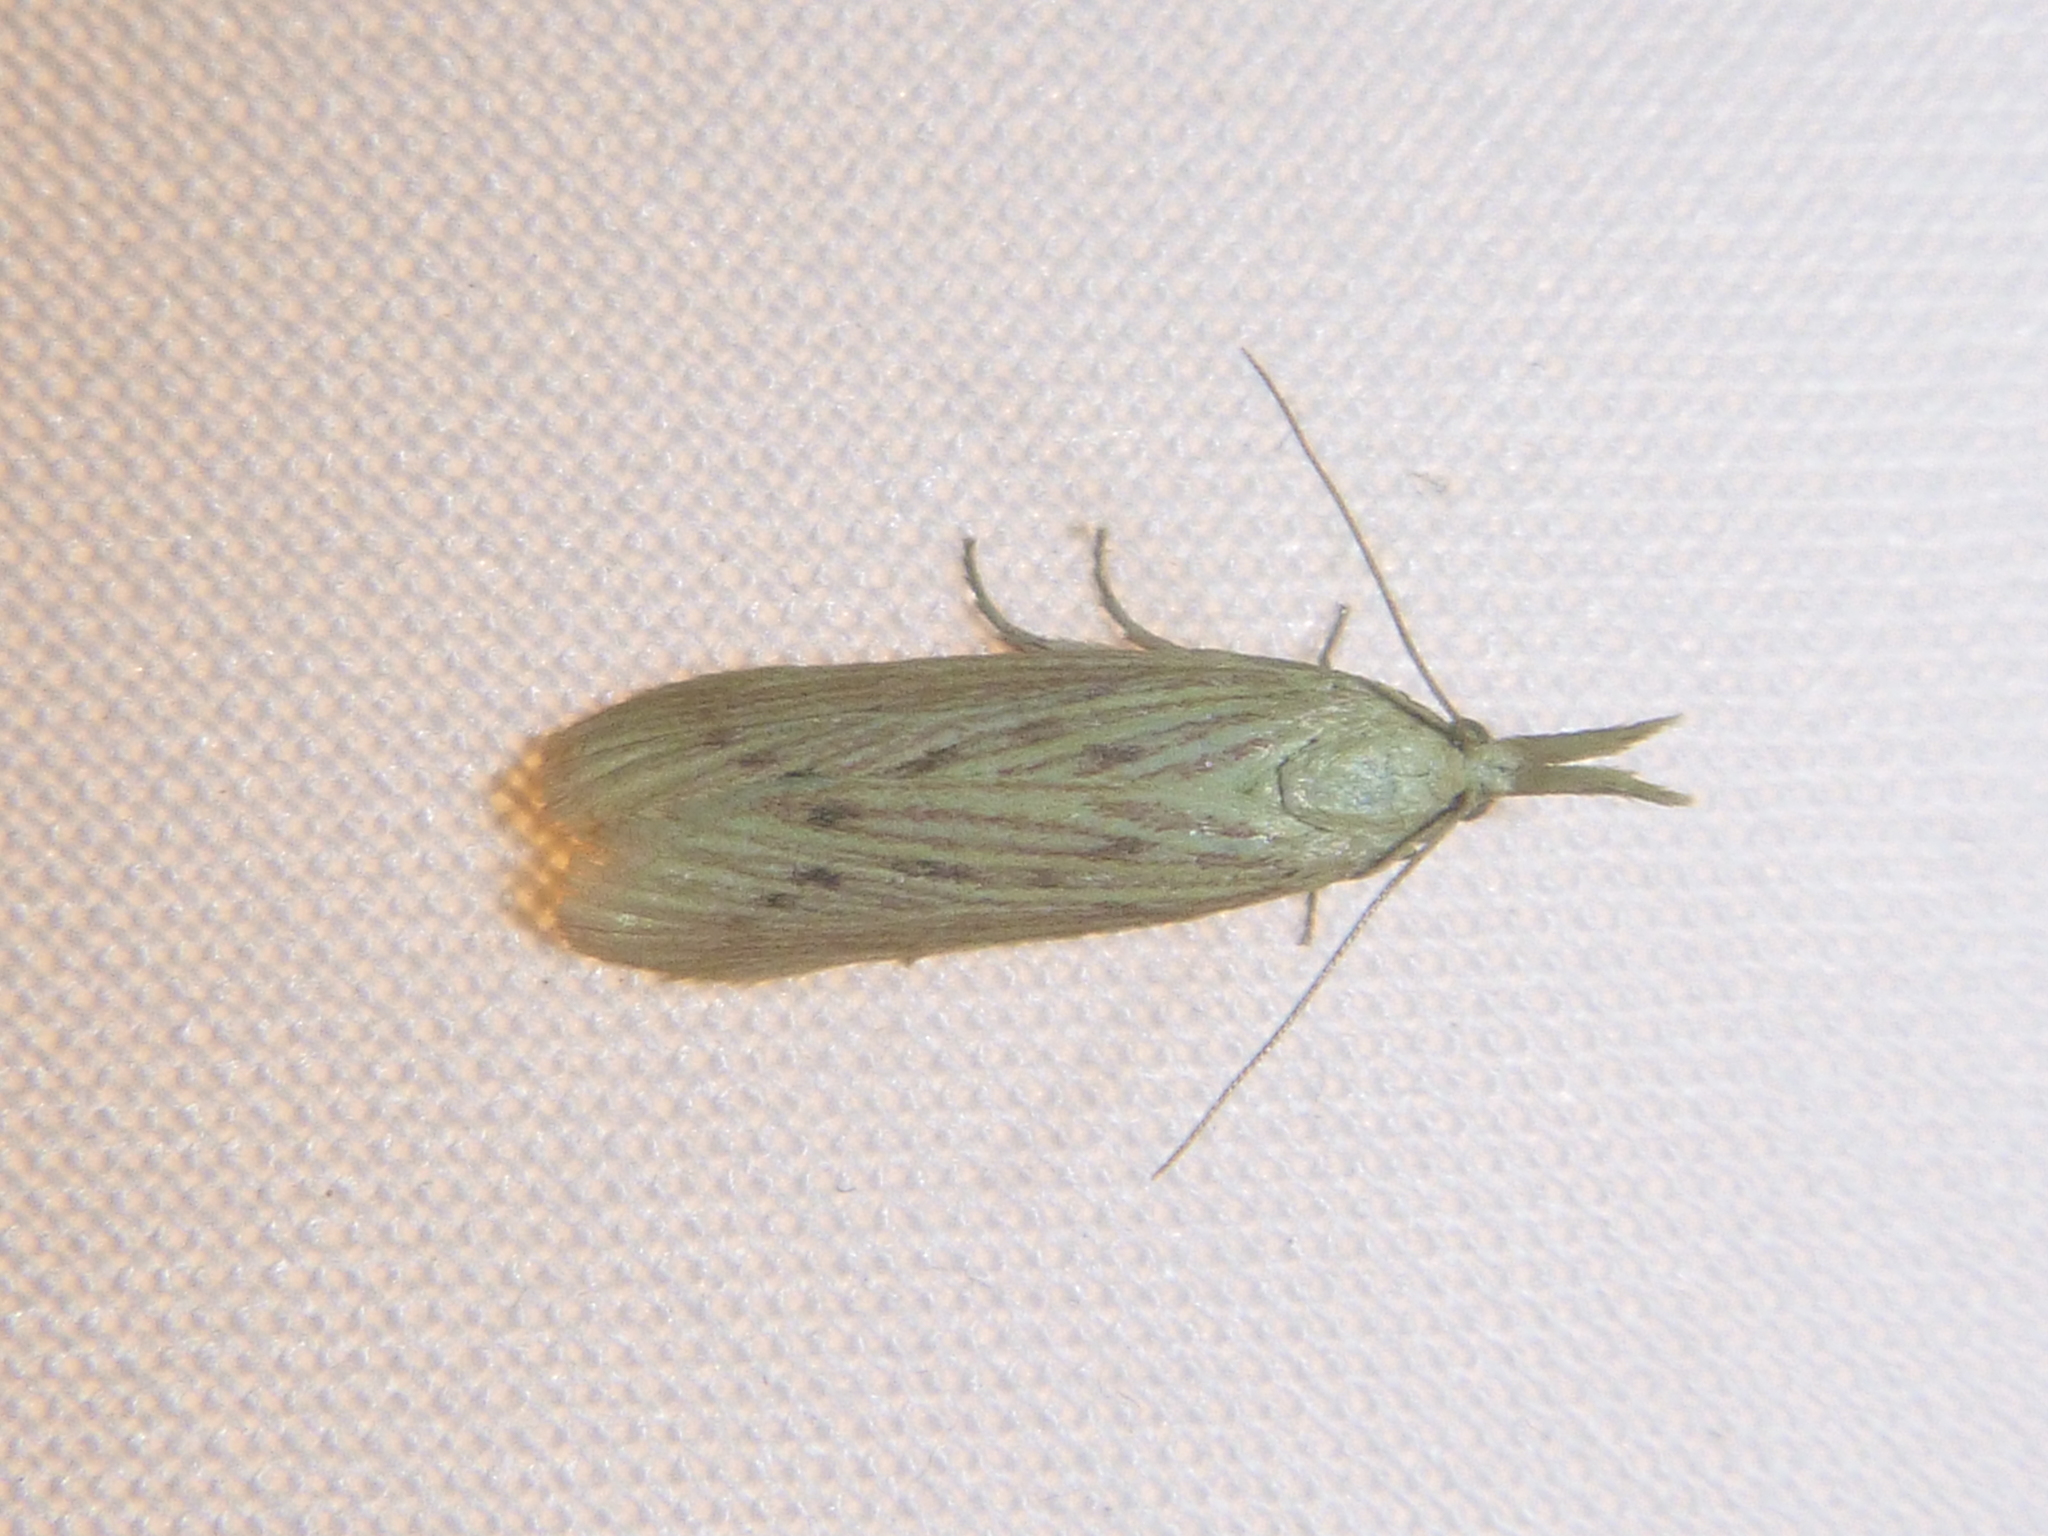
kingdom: Animalia
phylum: Arthropoda
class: Insecta
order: Lepidoptera
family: Pyralidae
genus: Ematheudes
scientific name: Ematheudes punctellus
